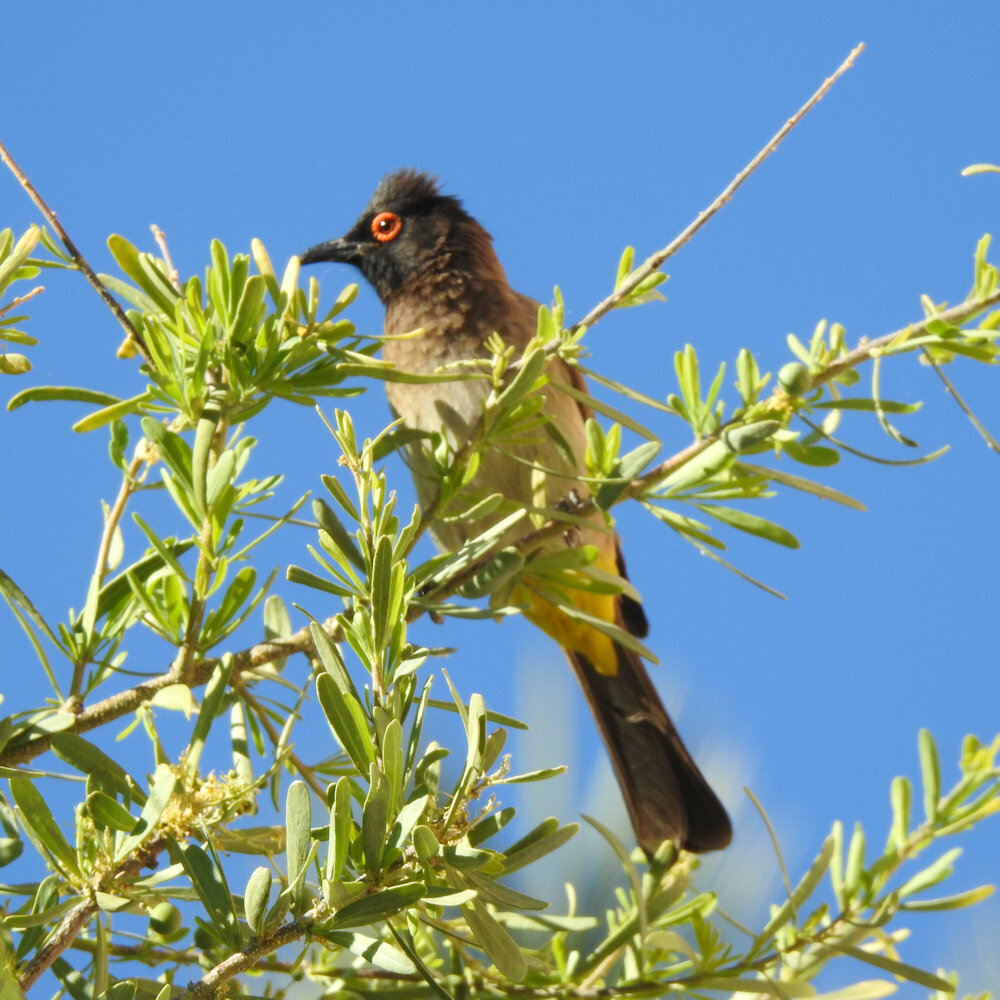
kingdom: Animalia
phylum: Chordata
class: Aves
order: Passeriformes
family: Pycnonotidae
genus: Pycnonotus
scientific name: Pycnonotus nigricans
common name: African red-eyed bulbul
